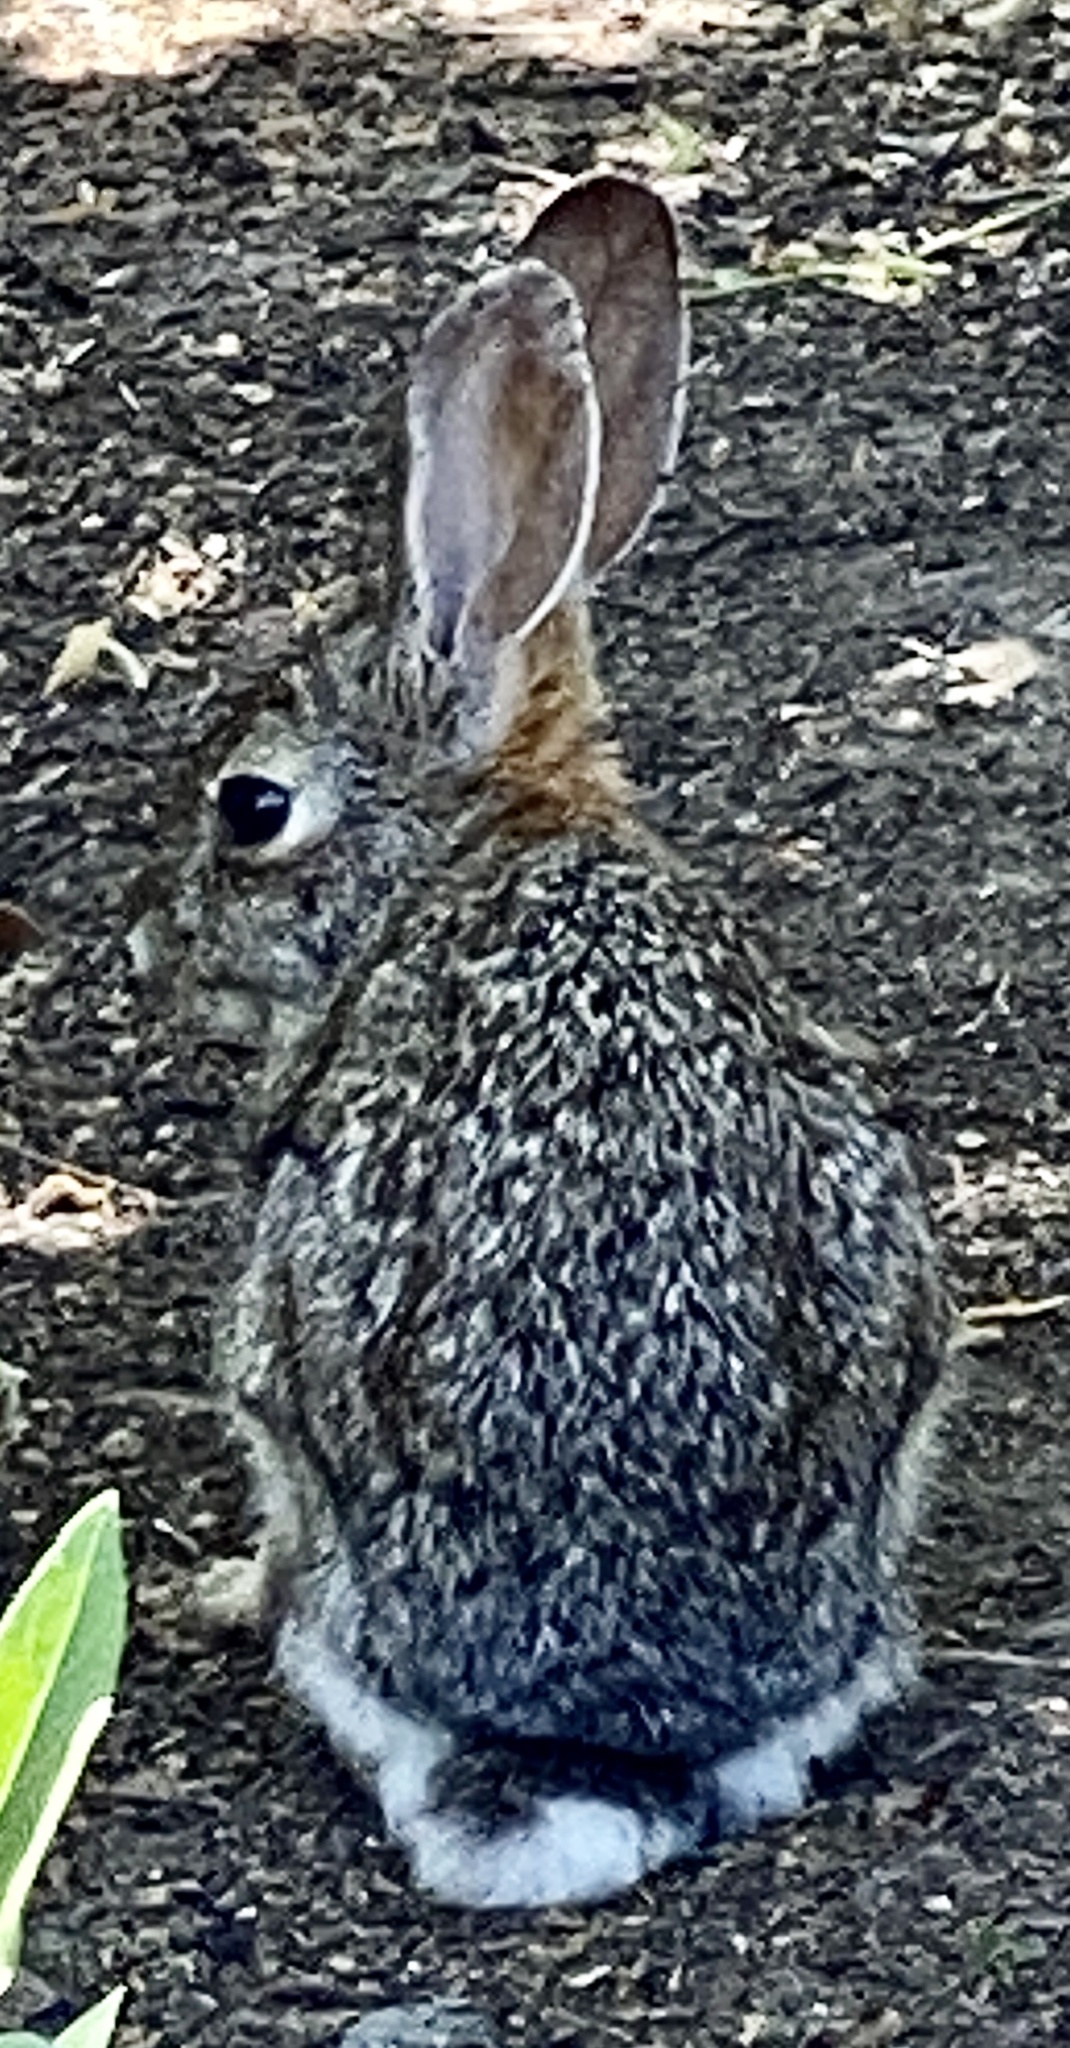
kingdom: Animalia
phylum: Chordata
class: Mammalia
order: Lagomorpha
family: Leporidae
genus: Sylvilagus
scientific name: Sylvilagus audubonii
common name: Desert cottontail
